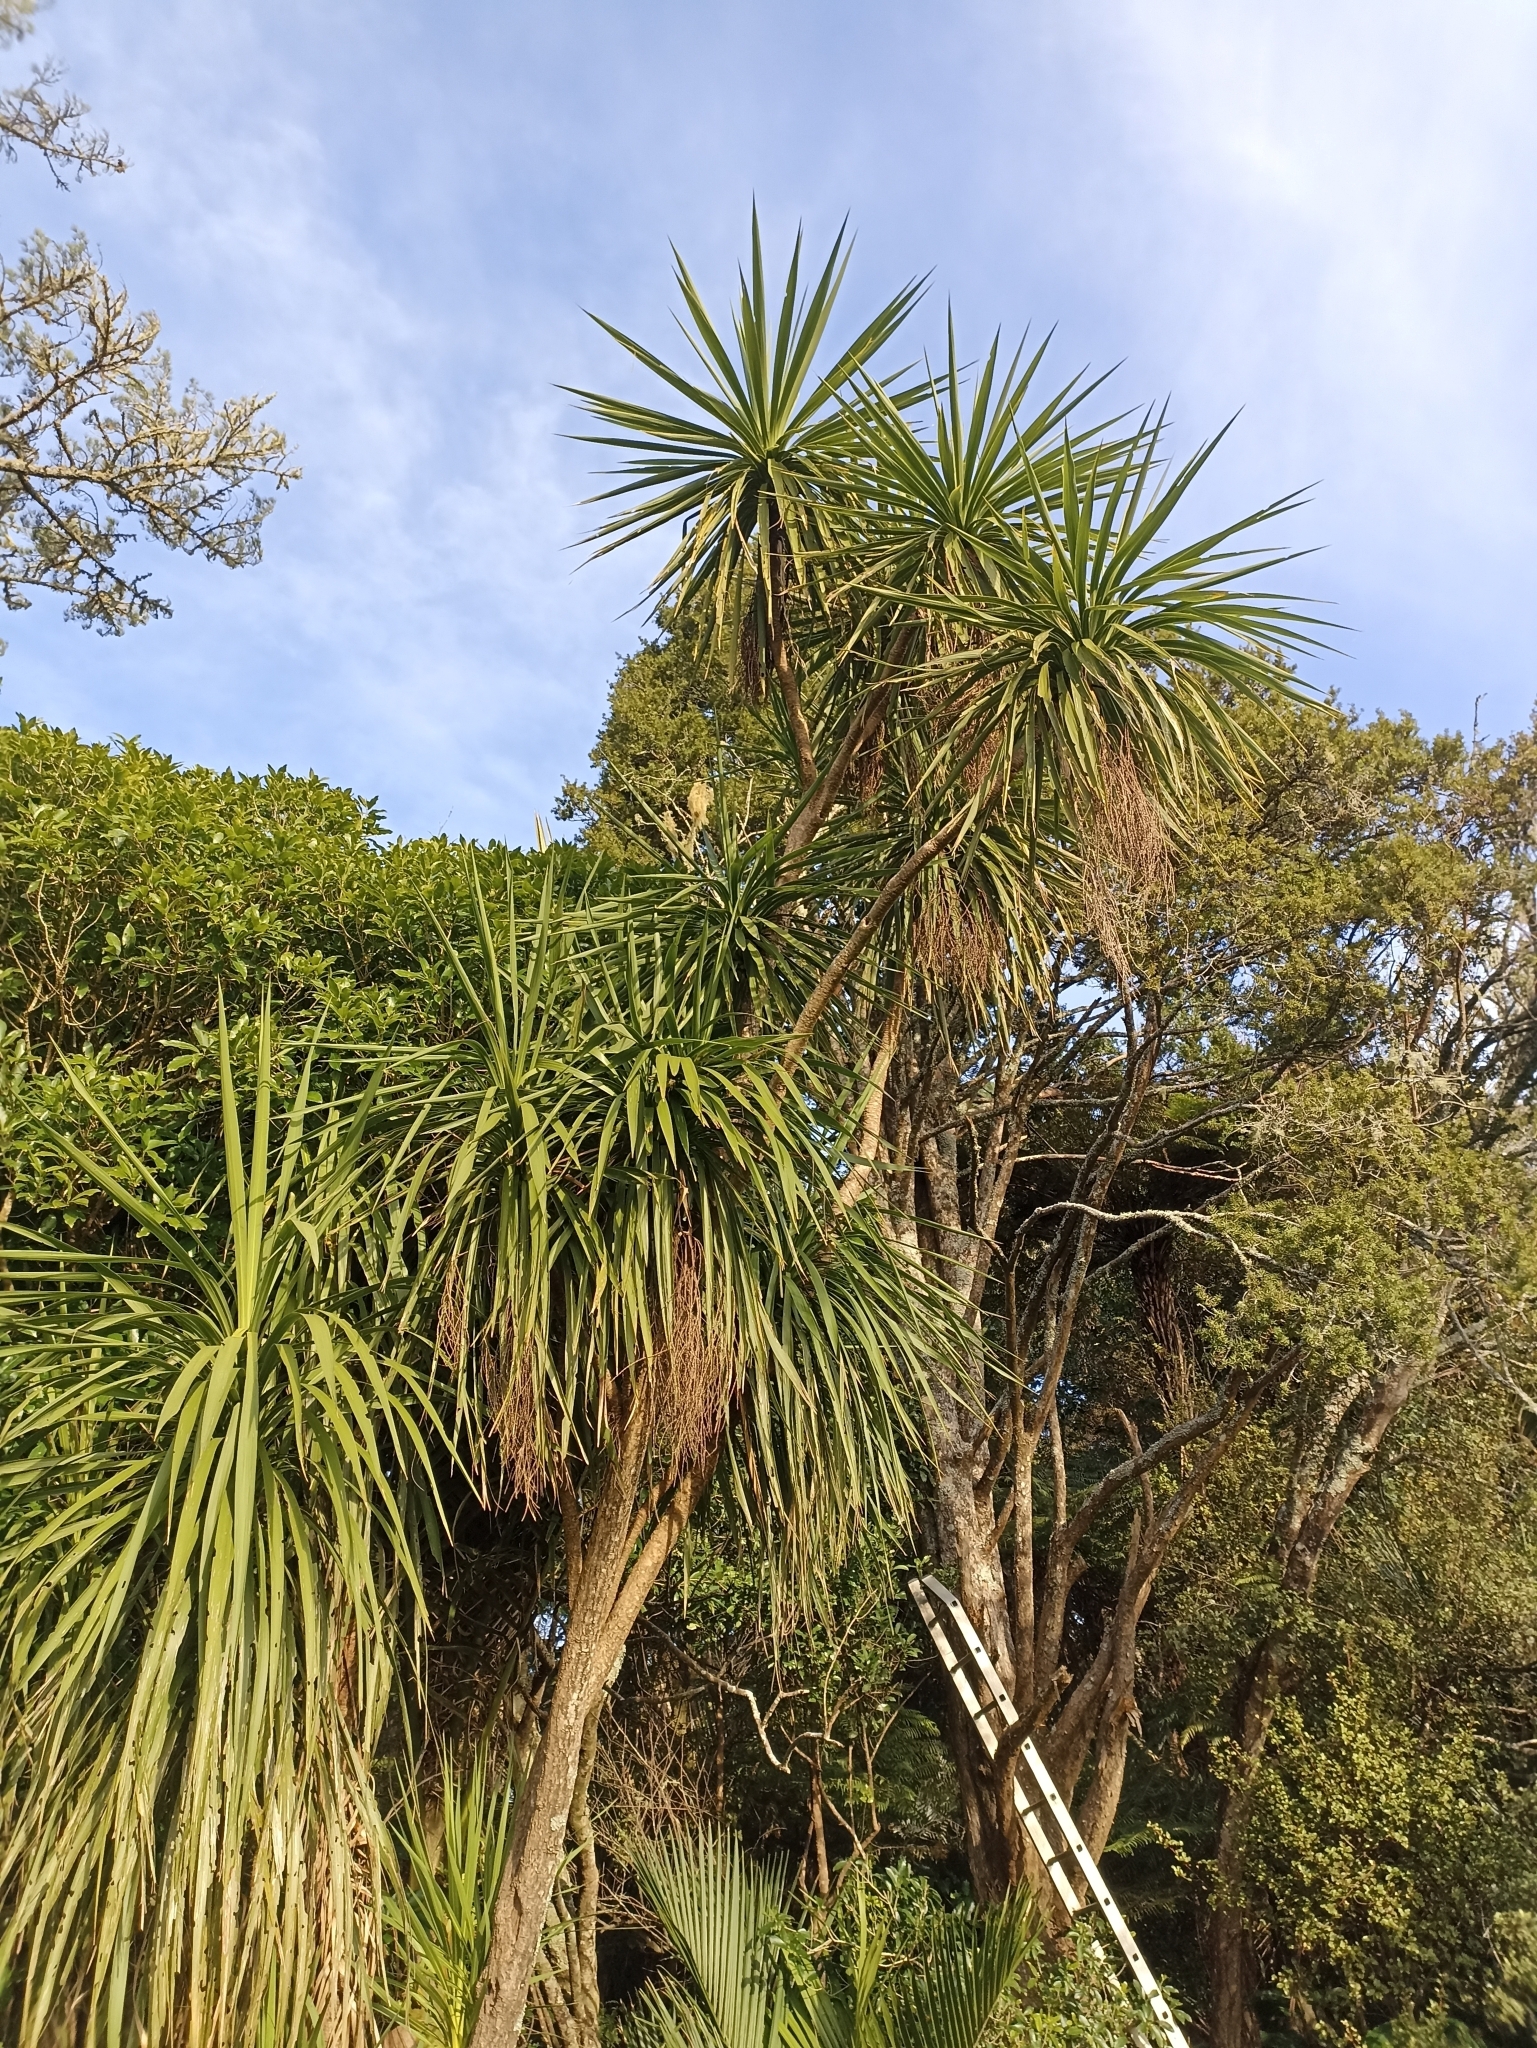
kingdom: Plantae
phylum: Tracheophyta
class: Liliopsida
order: Asparagales
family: Asparagaceae
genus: Cordyline
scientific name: Cordyline australis
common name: Cabbage-palm
